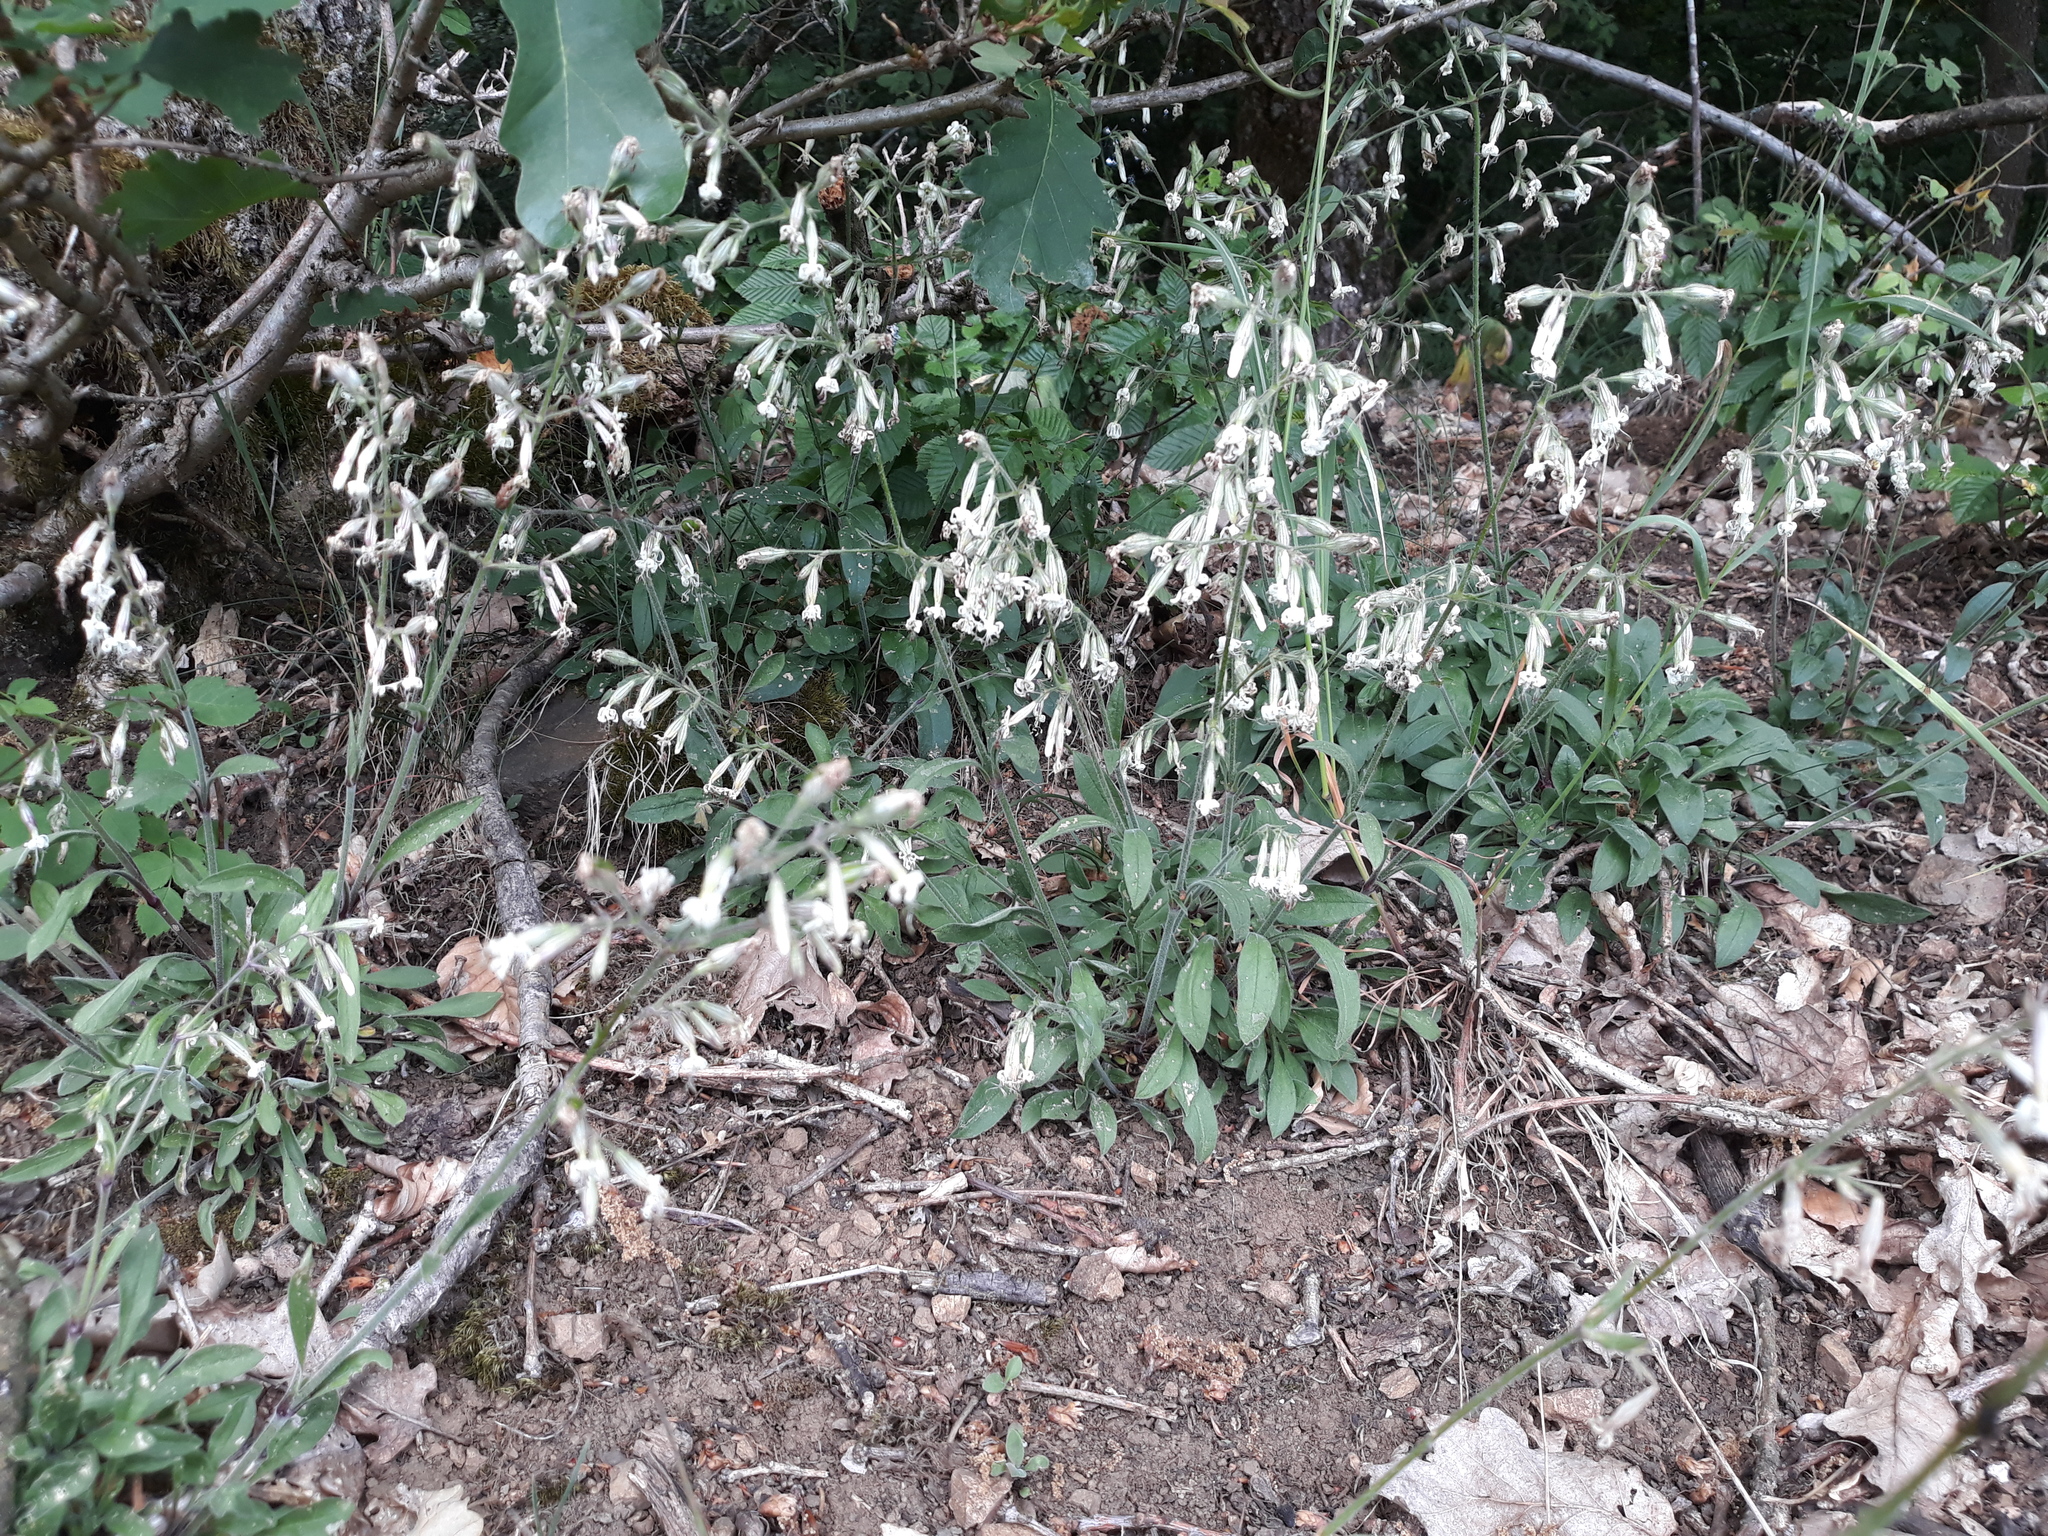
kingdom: Plantae
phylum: Tracheophyta
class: Magnoliopsida
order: Caryophyllales
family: Caryophyllaceae
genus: Silene
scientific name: Silene nutans
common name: Nottingham catchfly
